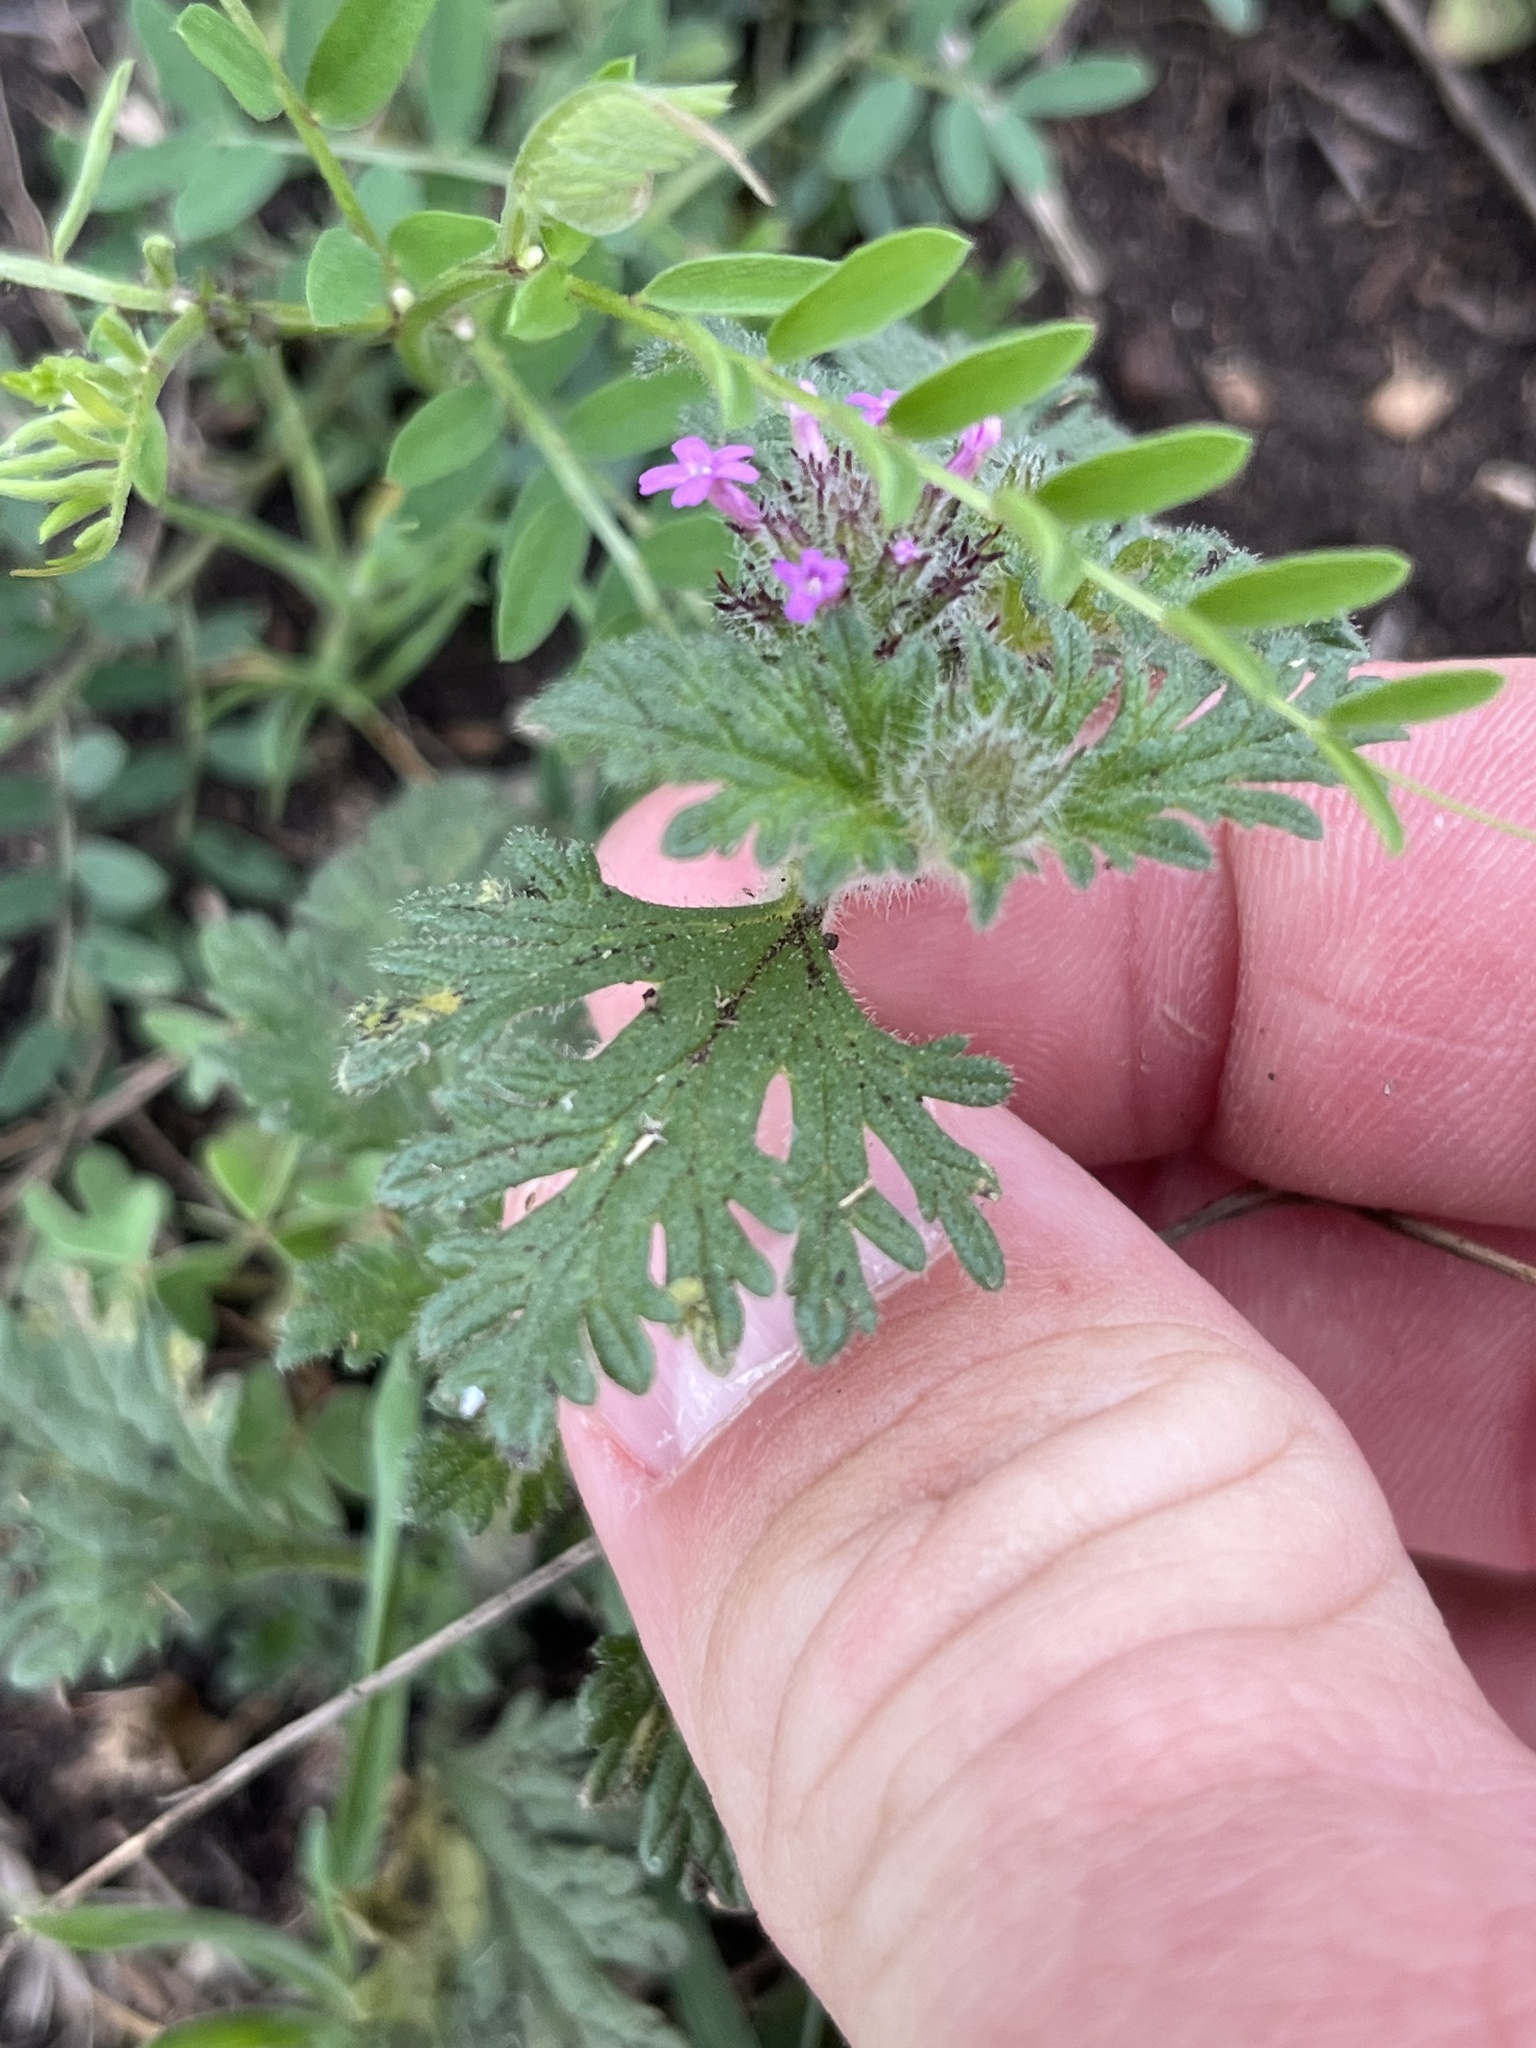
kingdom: Plantae
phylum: Tracheophyta
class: Magnoliopsida
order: Lamiales
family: Verbenaceae
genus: Verbena
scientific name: Verbena pumila
